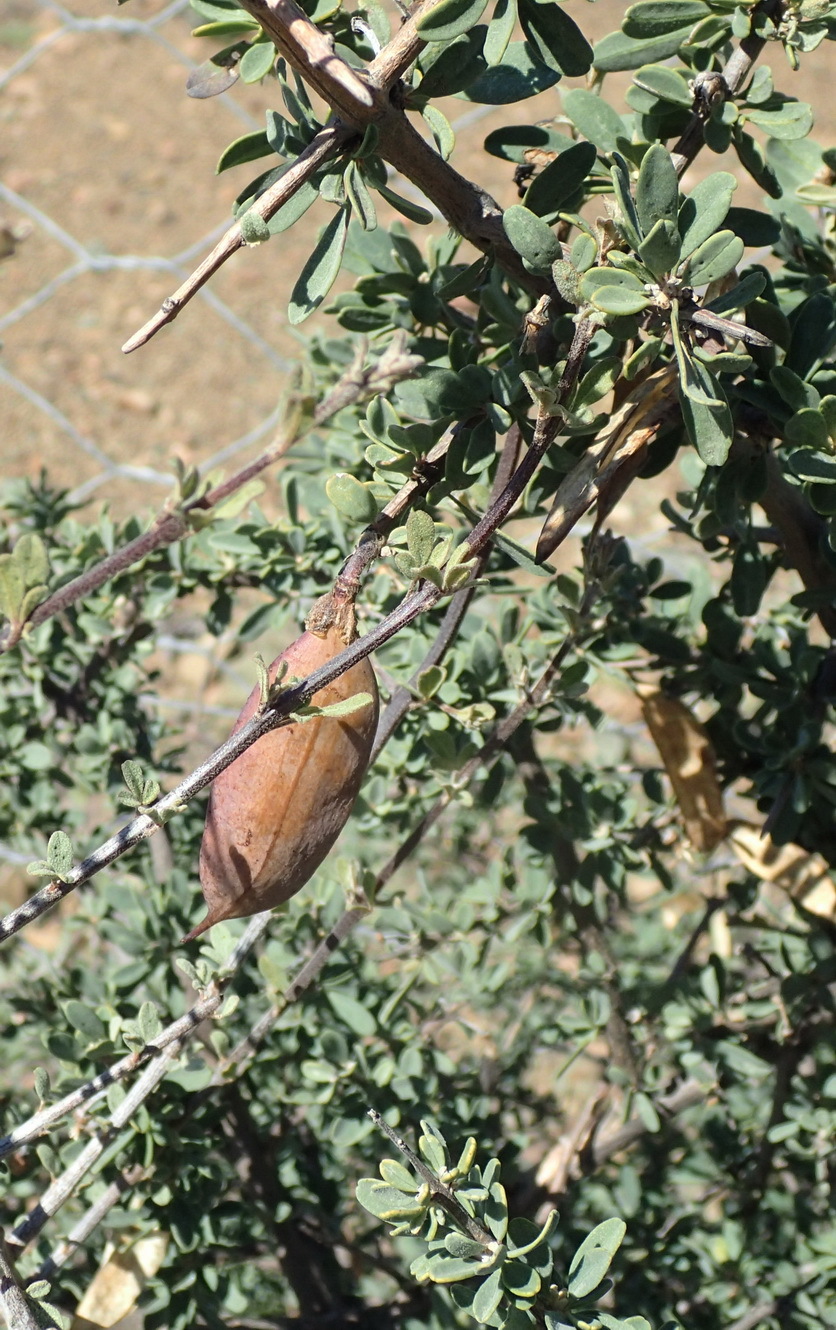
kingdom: Plantae
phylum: Tracheophyta
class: Magnoliopsida
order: Lamiales
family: Bignoniaceae
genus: Rhigozum
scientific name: Rhigozum obovatum
